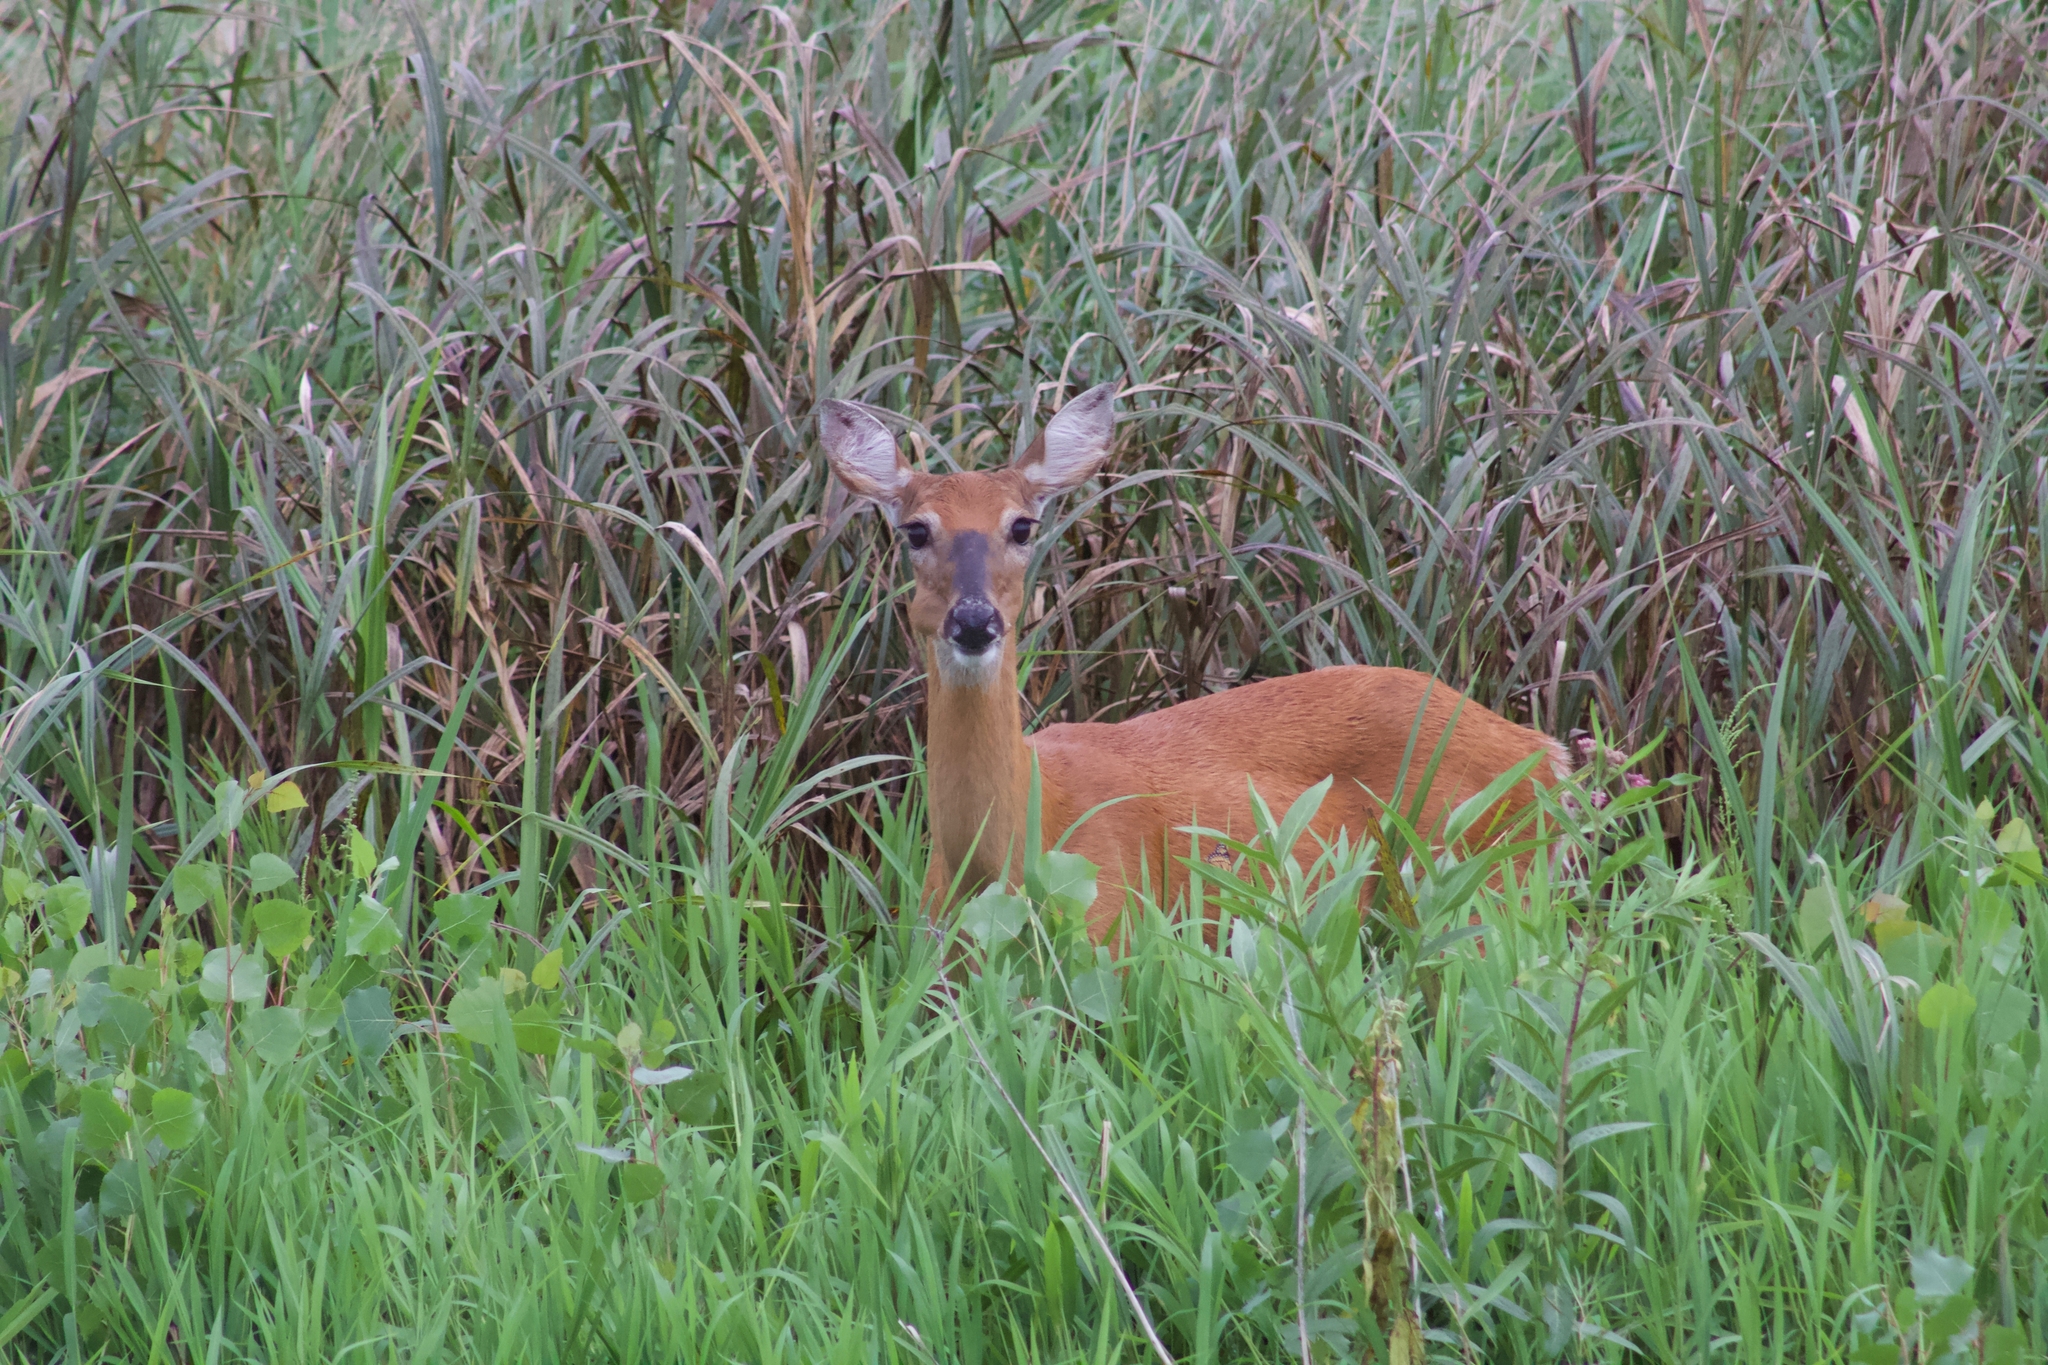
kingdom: Animalia
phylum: Chordata
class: Mammalia
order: Artiodactyla
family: Cervidae
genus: Odocoileus
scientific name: Odocoileus virginianus
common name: White-tailed deer
